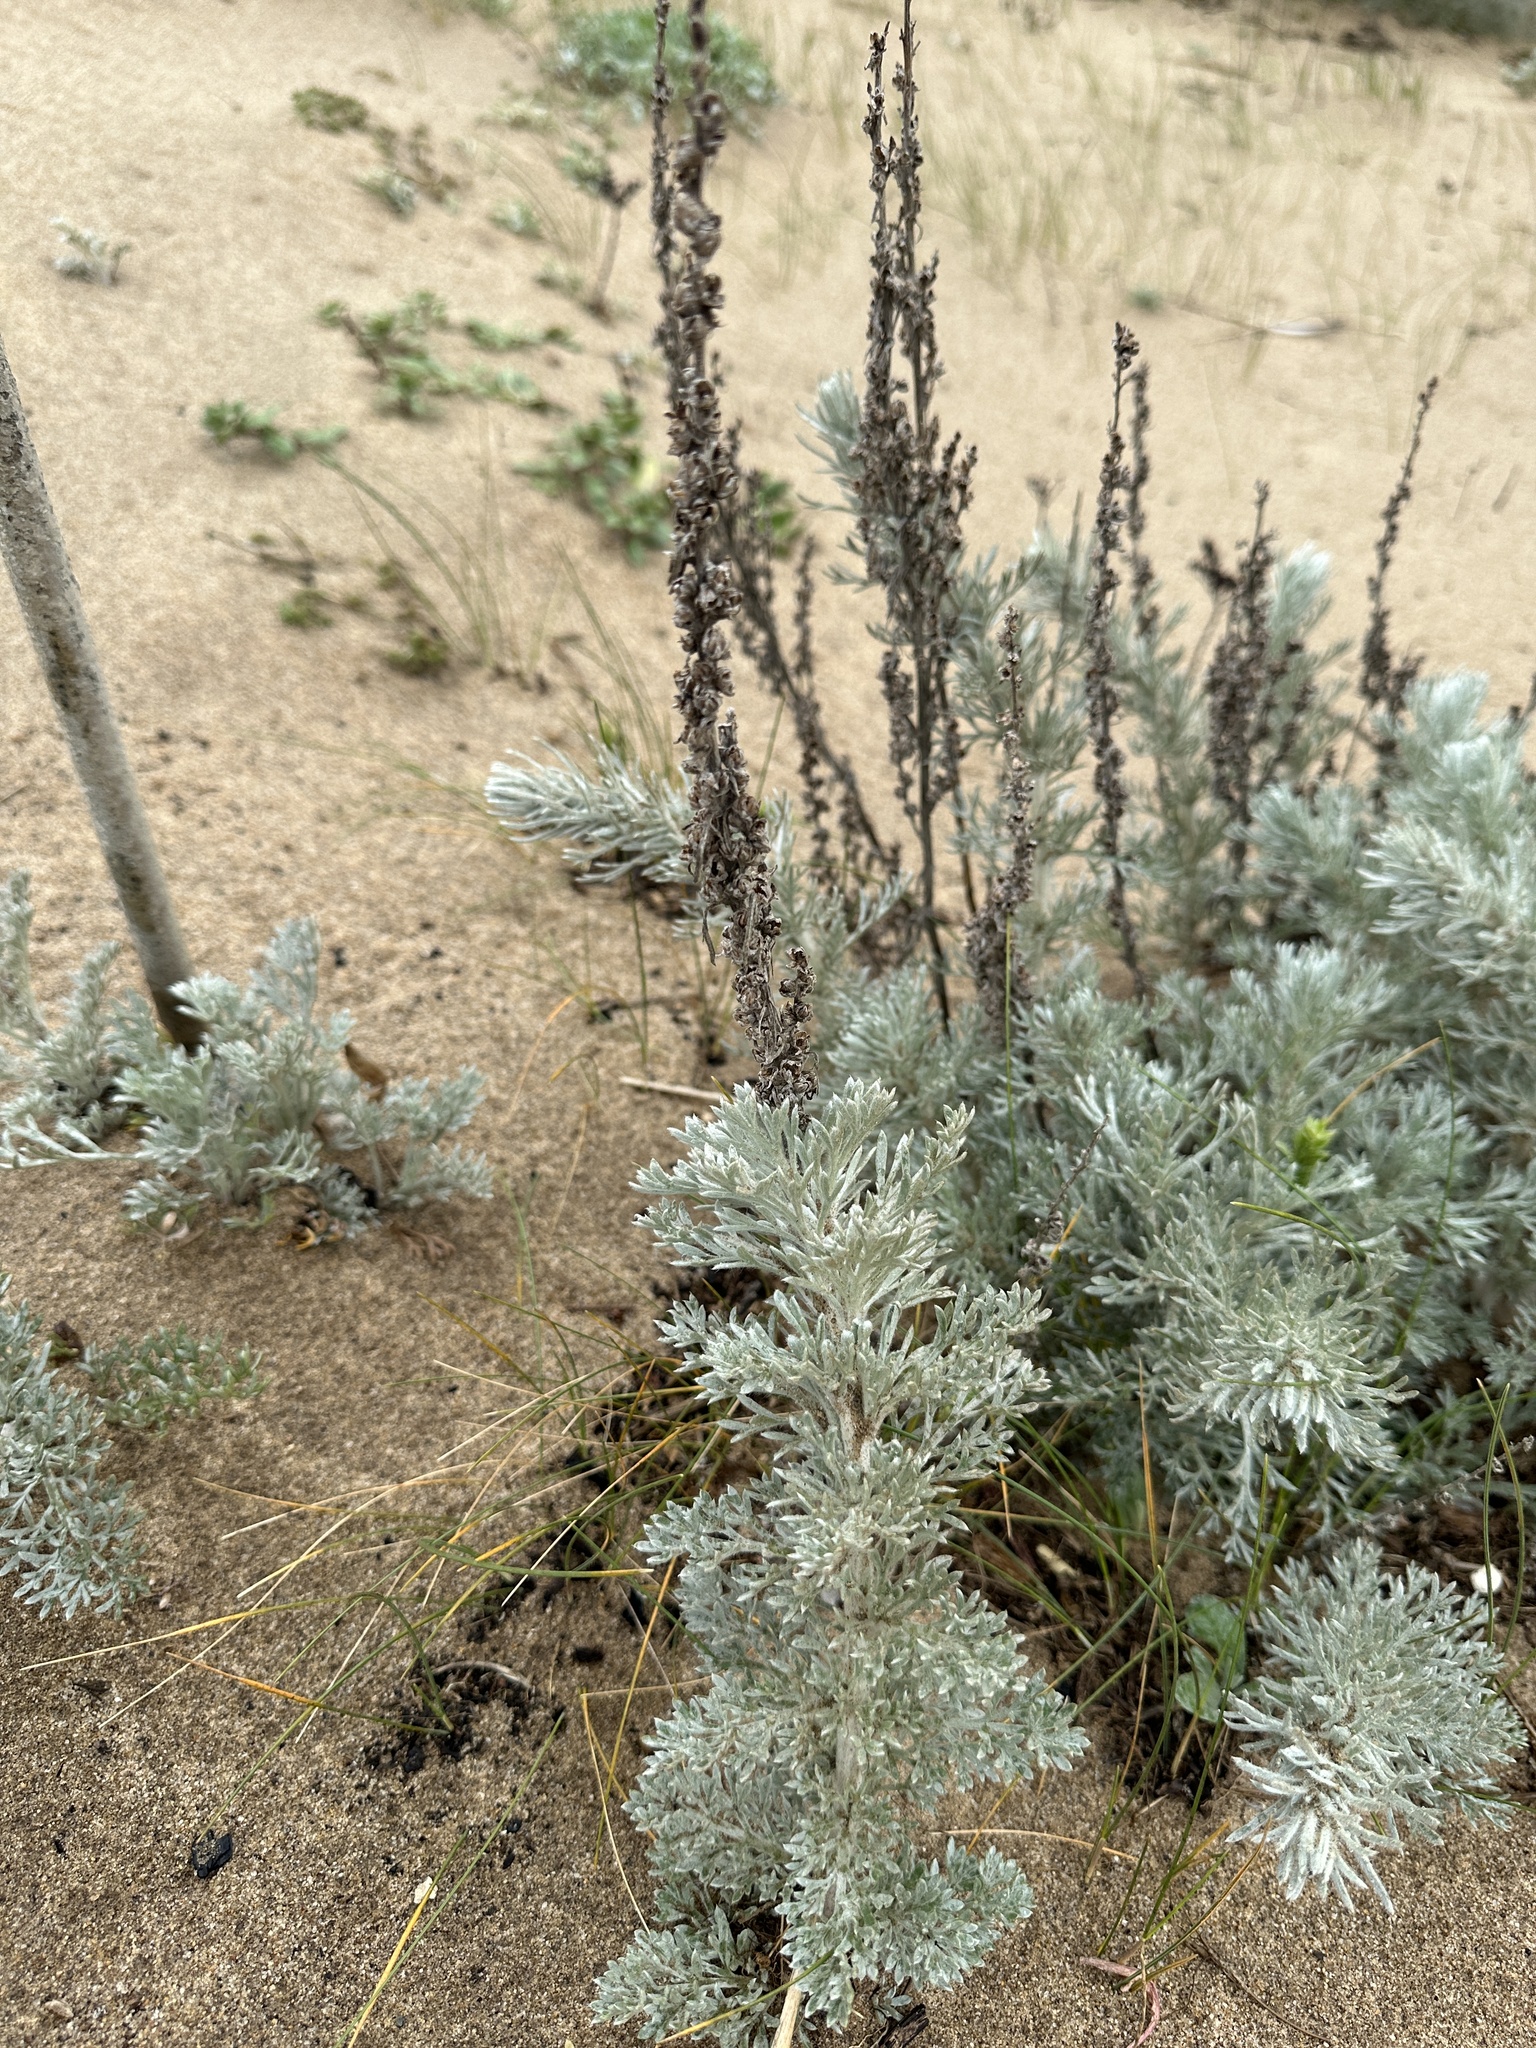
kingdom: Plantae
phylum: Tracheophyta
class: Magnoliopsida
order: Asterales
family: Asteraceae
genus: Artemisia
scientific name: Artemisia pycnocephala
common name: Coastal sagewort
